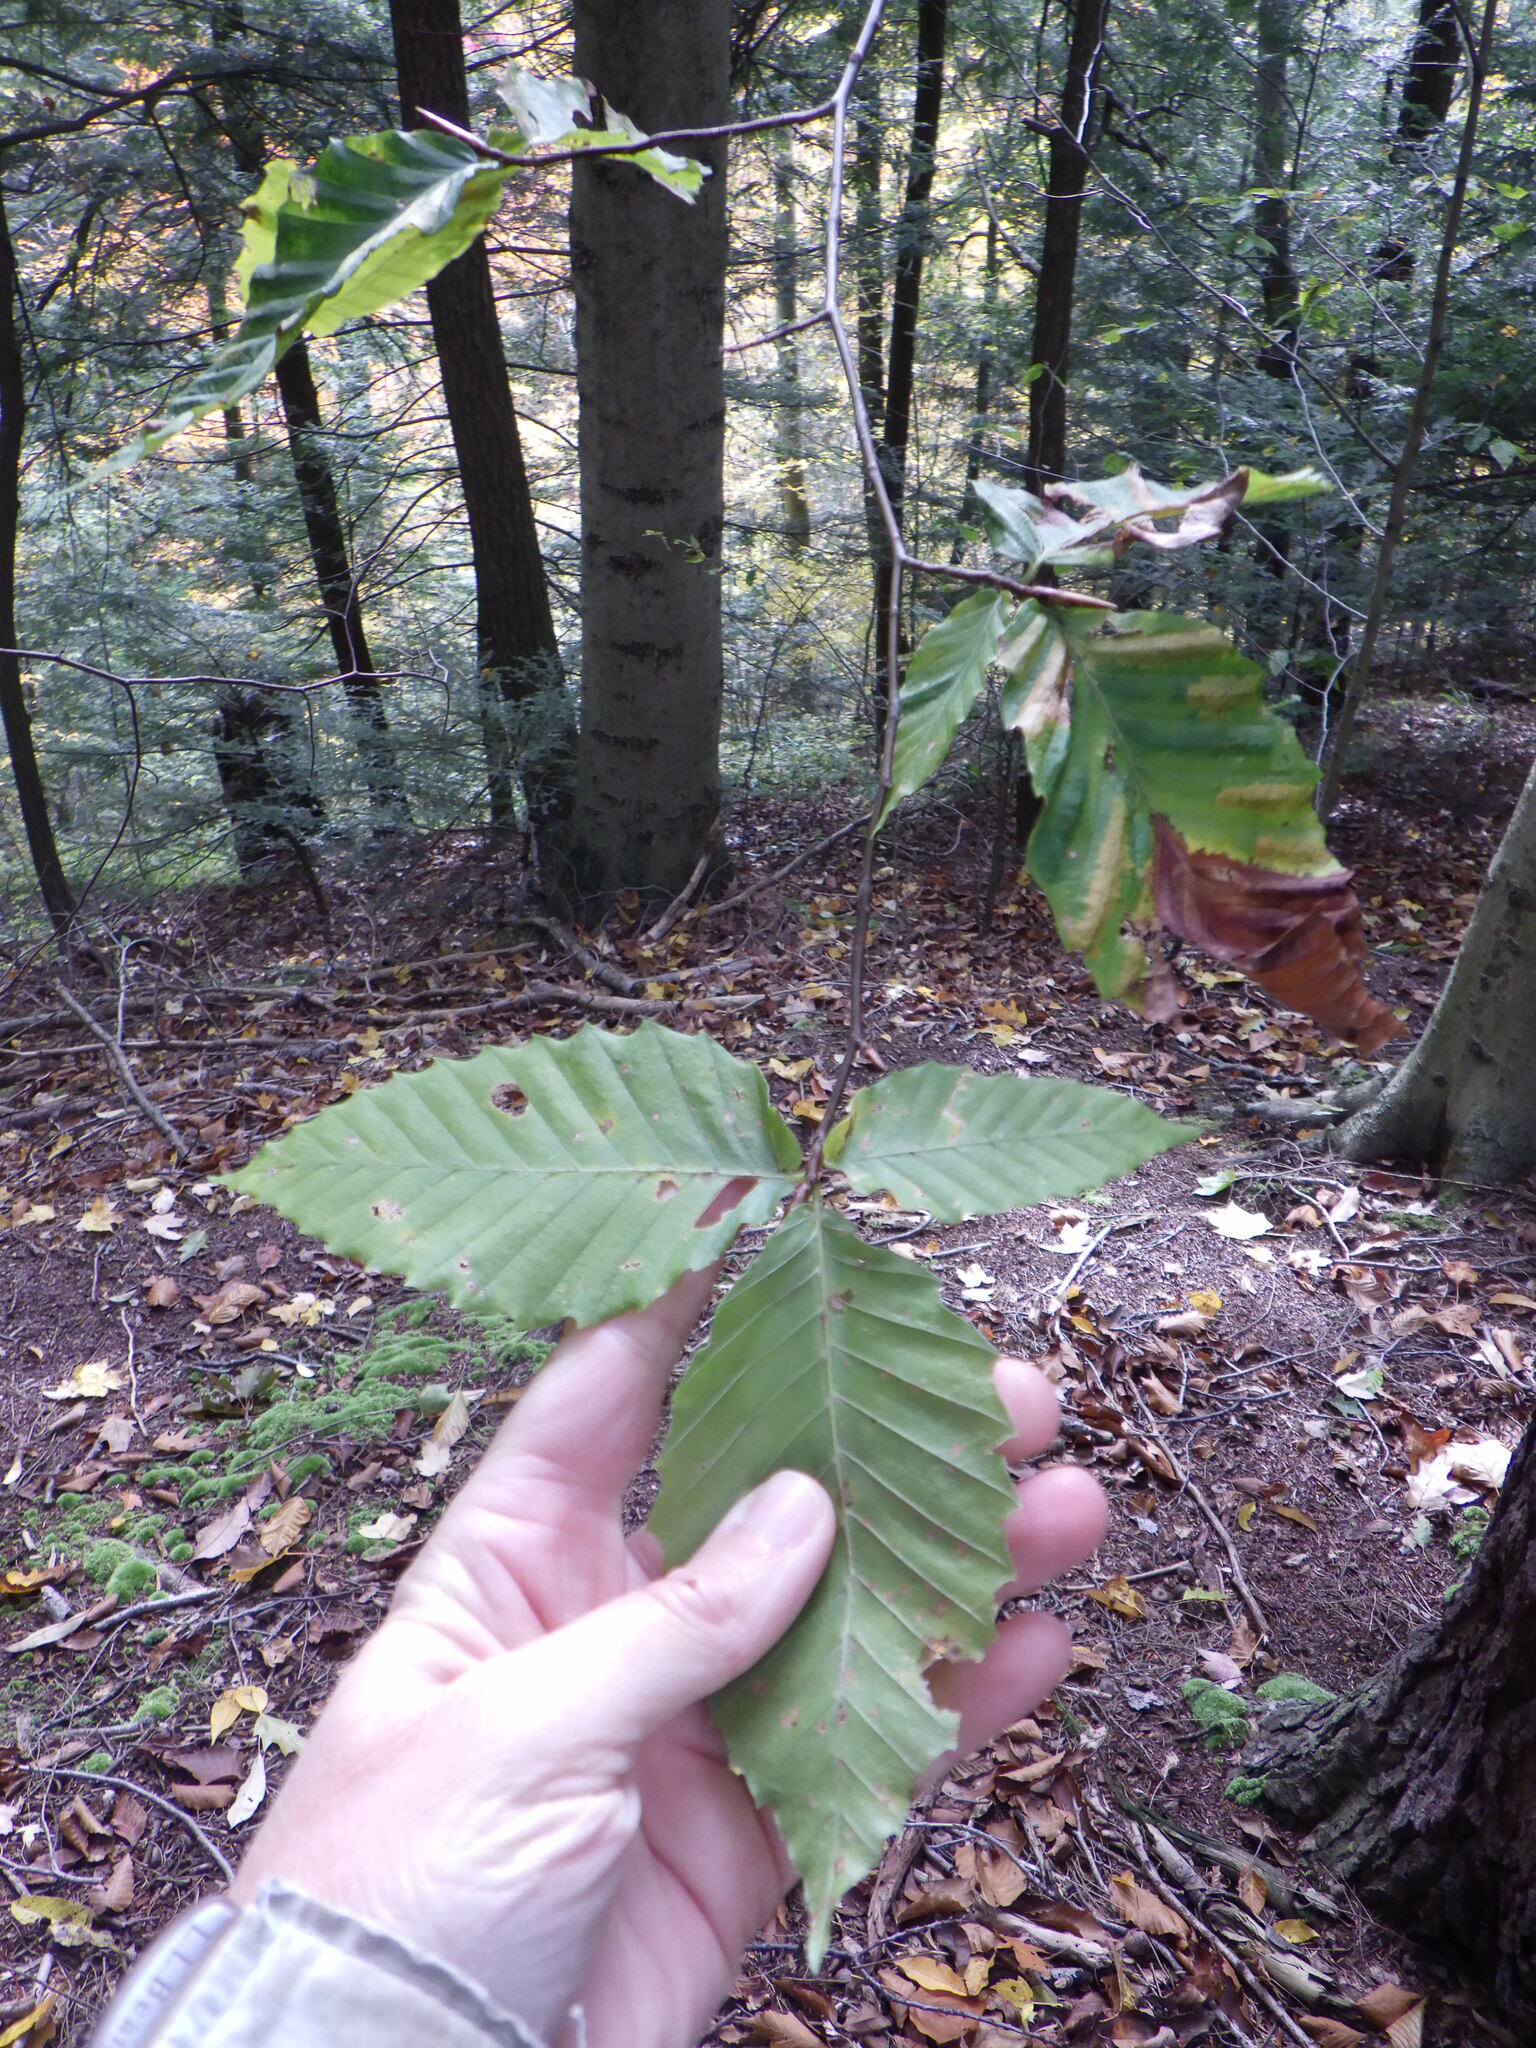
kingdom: Animalia
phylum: Nematoda
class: Chromadorea
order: Rhabditida
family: Anguinidae
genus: Litylenchus
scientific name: Litylenchus crenatae
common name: Beech leaf disease
